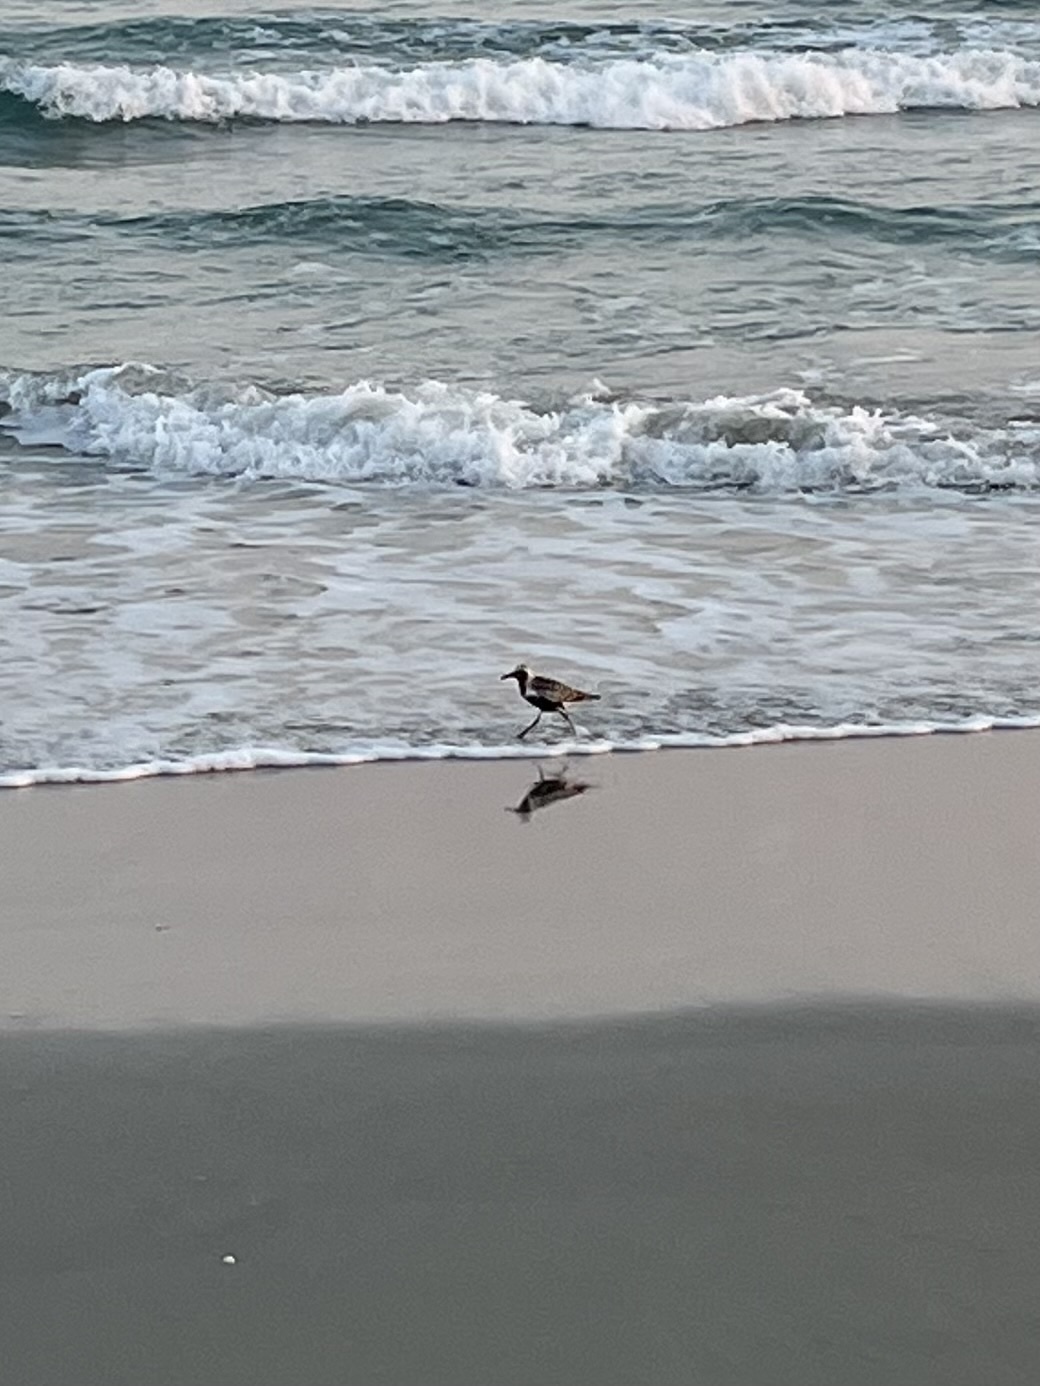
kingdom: Animalia
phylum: Chordata
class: Aves
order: Charadriiformes
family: Charadriidae
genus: Pluvialis
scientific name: Pluvialis squatarola
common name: Grey plover
